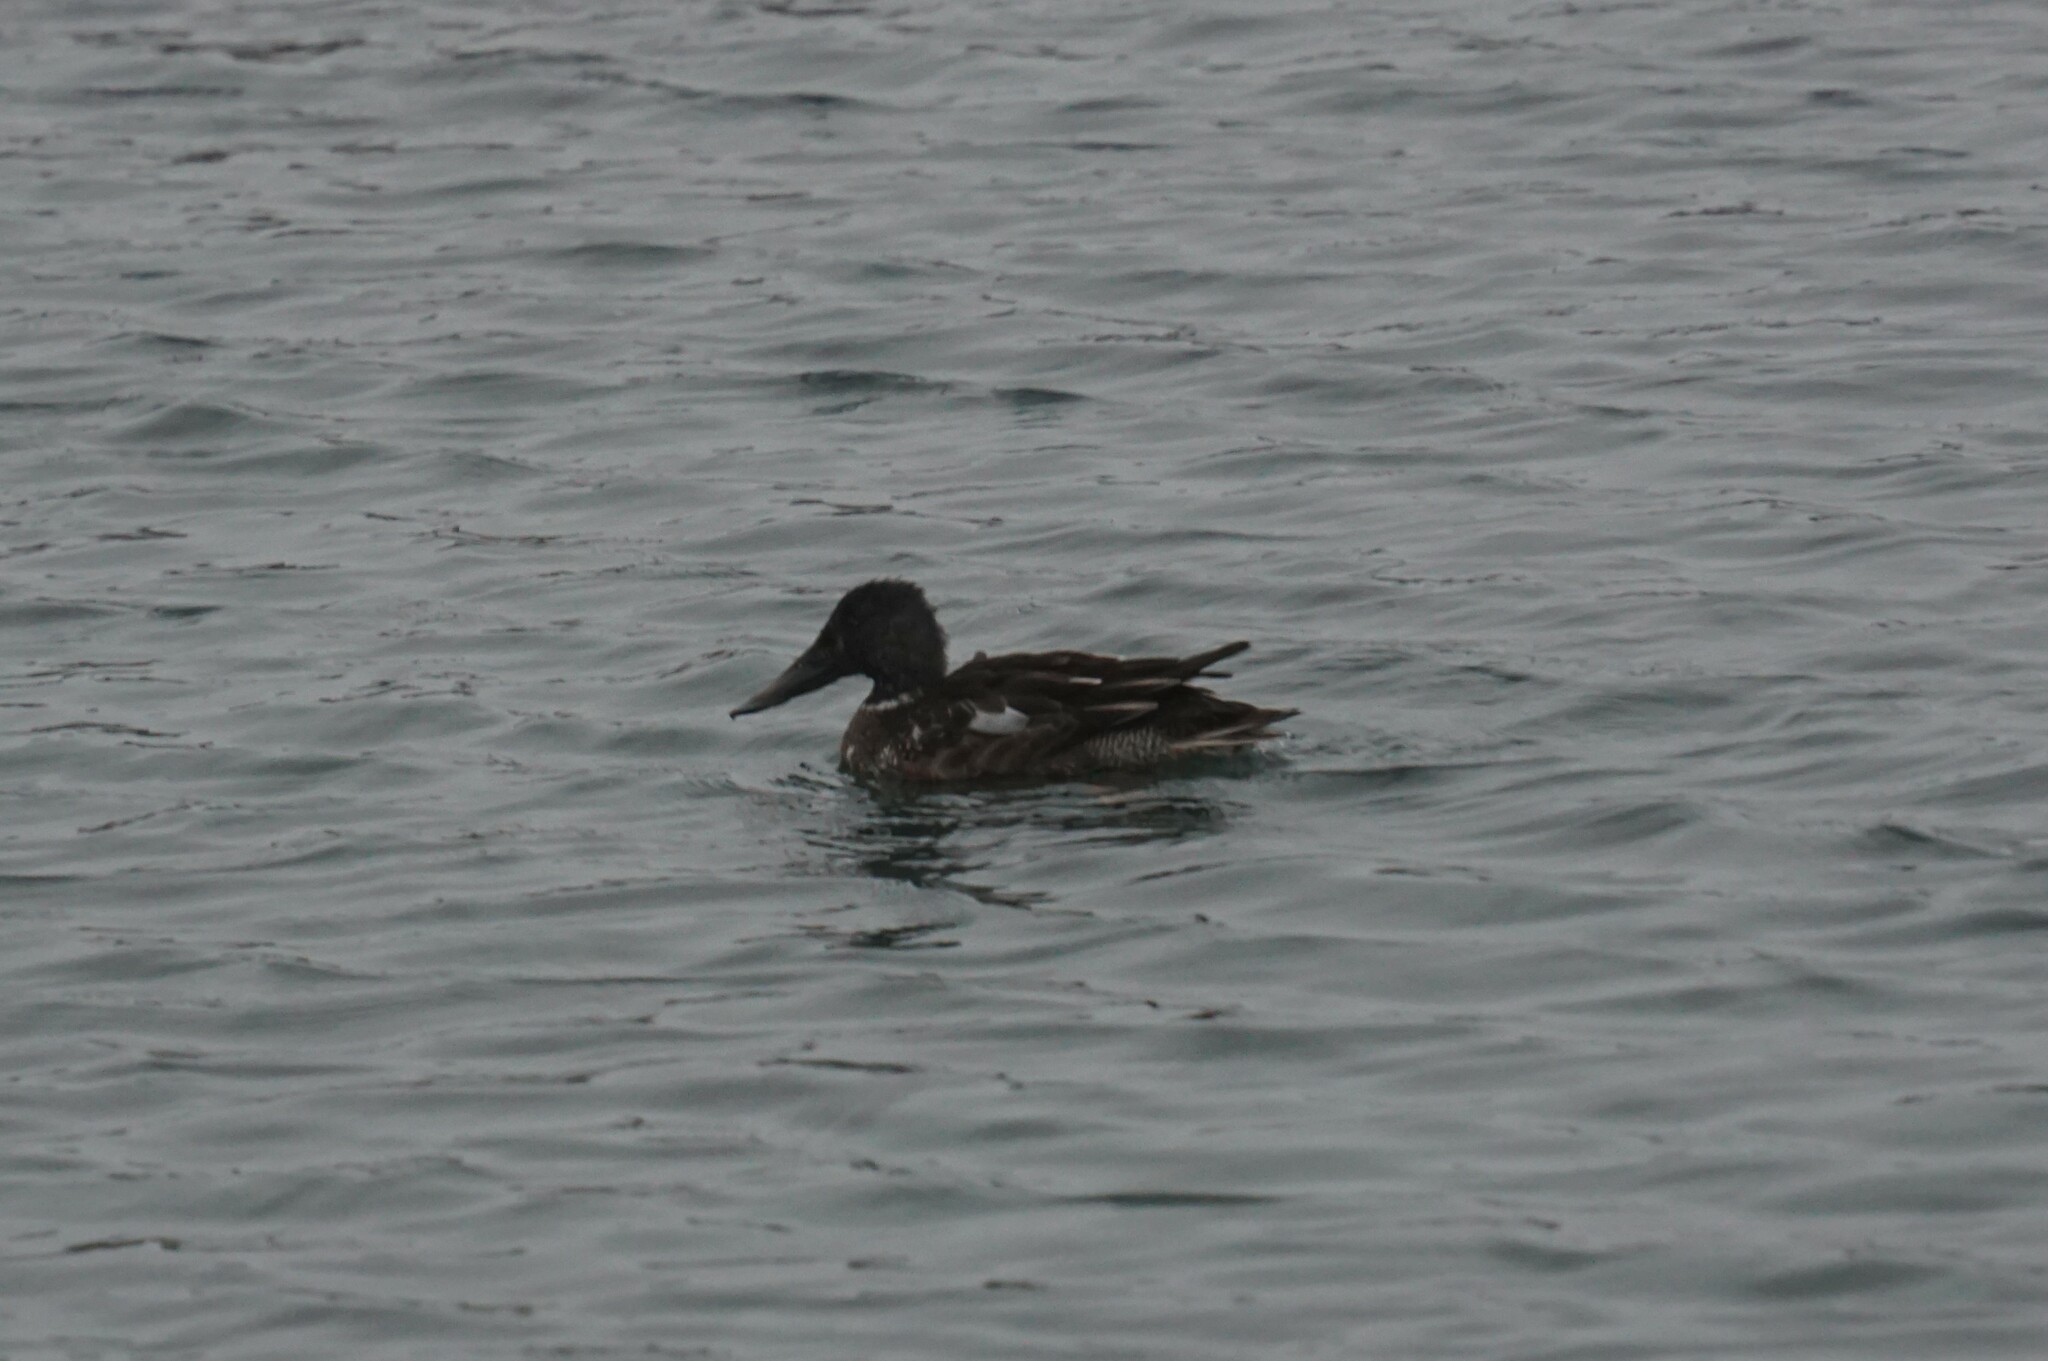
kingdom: Animalia
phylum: Chordata
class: Aves
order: Anseriformes
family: Anatidae
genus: Spatula
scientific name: Spatula clypeata
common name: Northern shoveler
